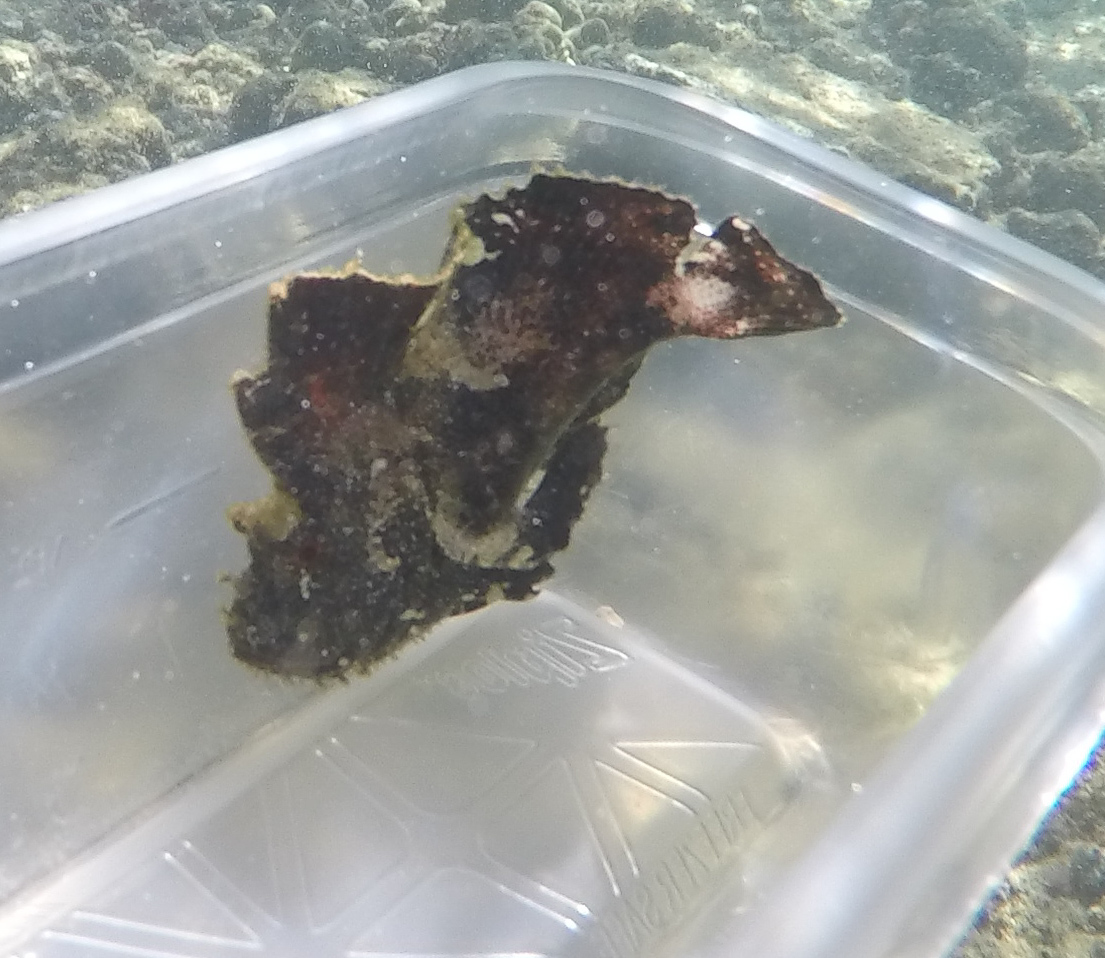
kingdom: Animalia
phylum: Chordata
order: Scorpaeniformes
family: Scorpaenidae
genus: Taenianotus
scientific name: Taenianotus triacanthus
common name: Leaf scorpionfish
